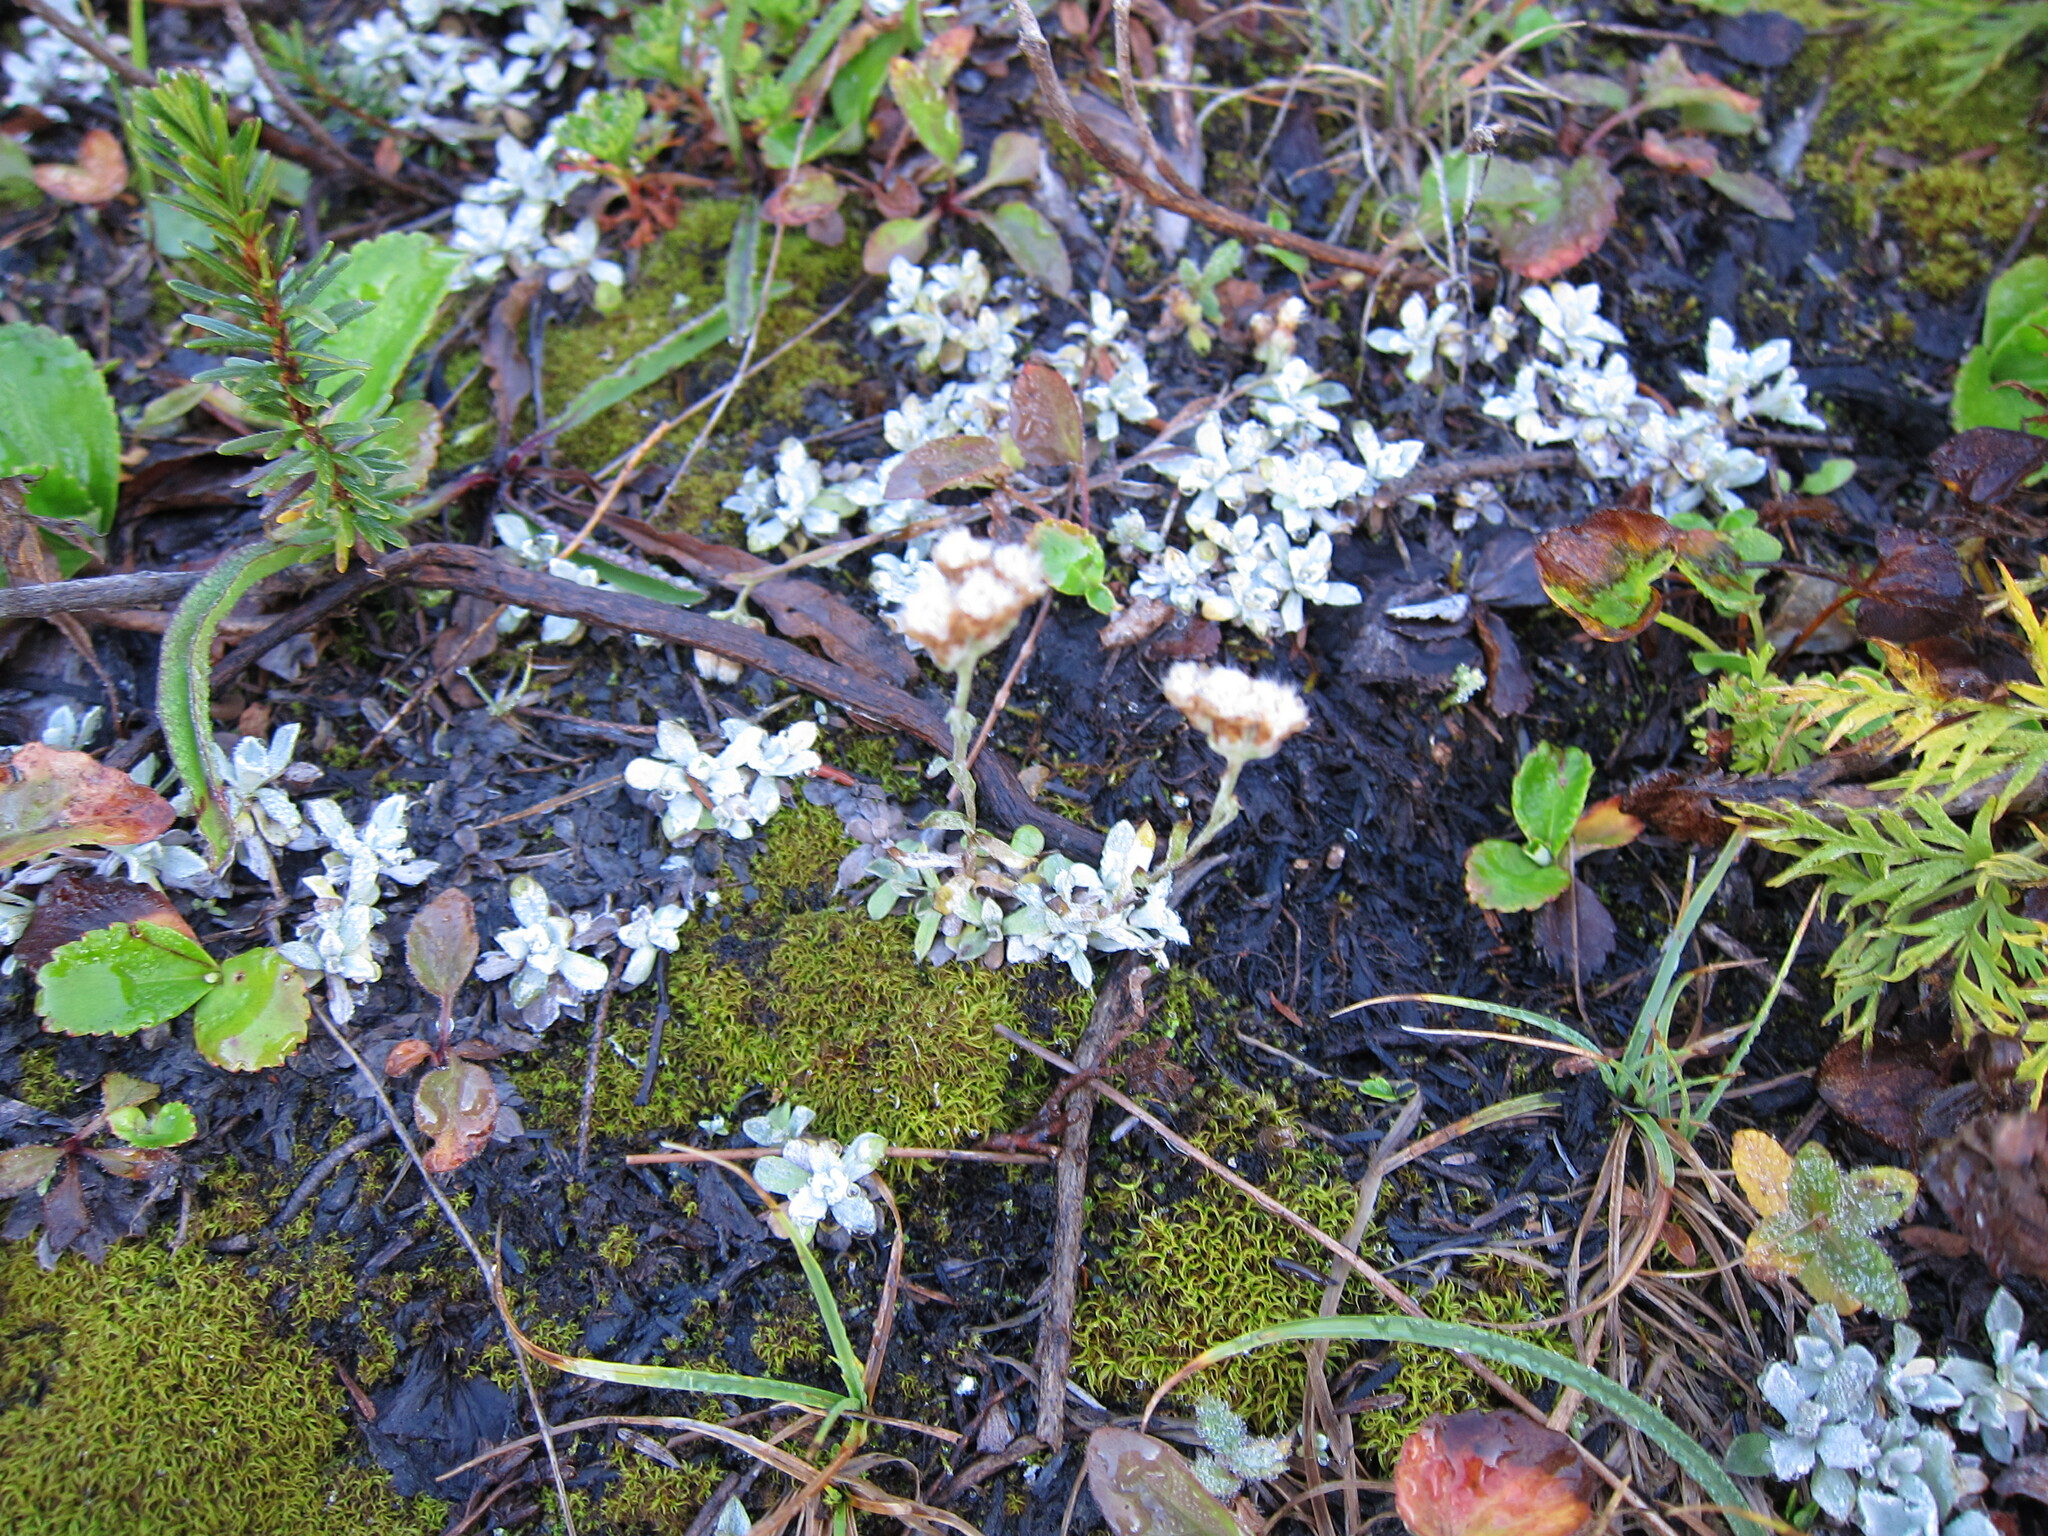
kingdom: Plantae
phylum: Tracheophyta
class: Magnoliopsida
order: Asterales
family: Asteraceae
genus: Antennaria
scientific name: Antennaria media
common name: Rocky mountain pussytoes
